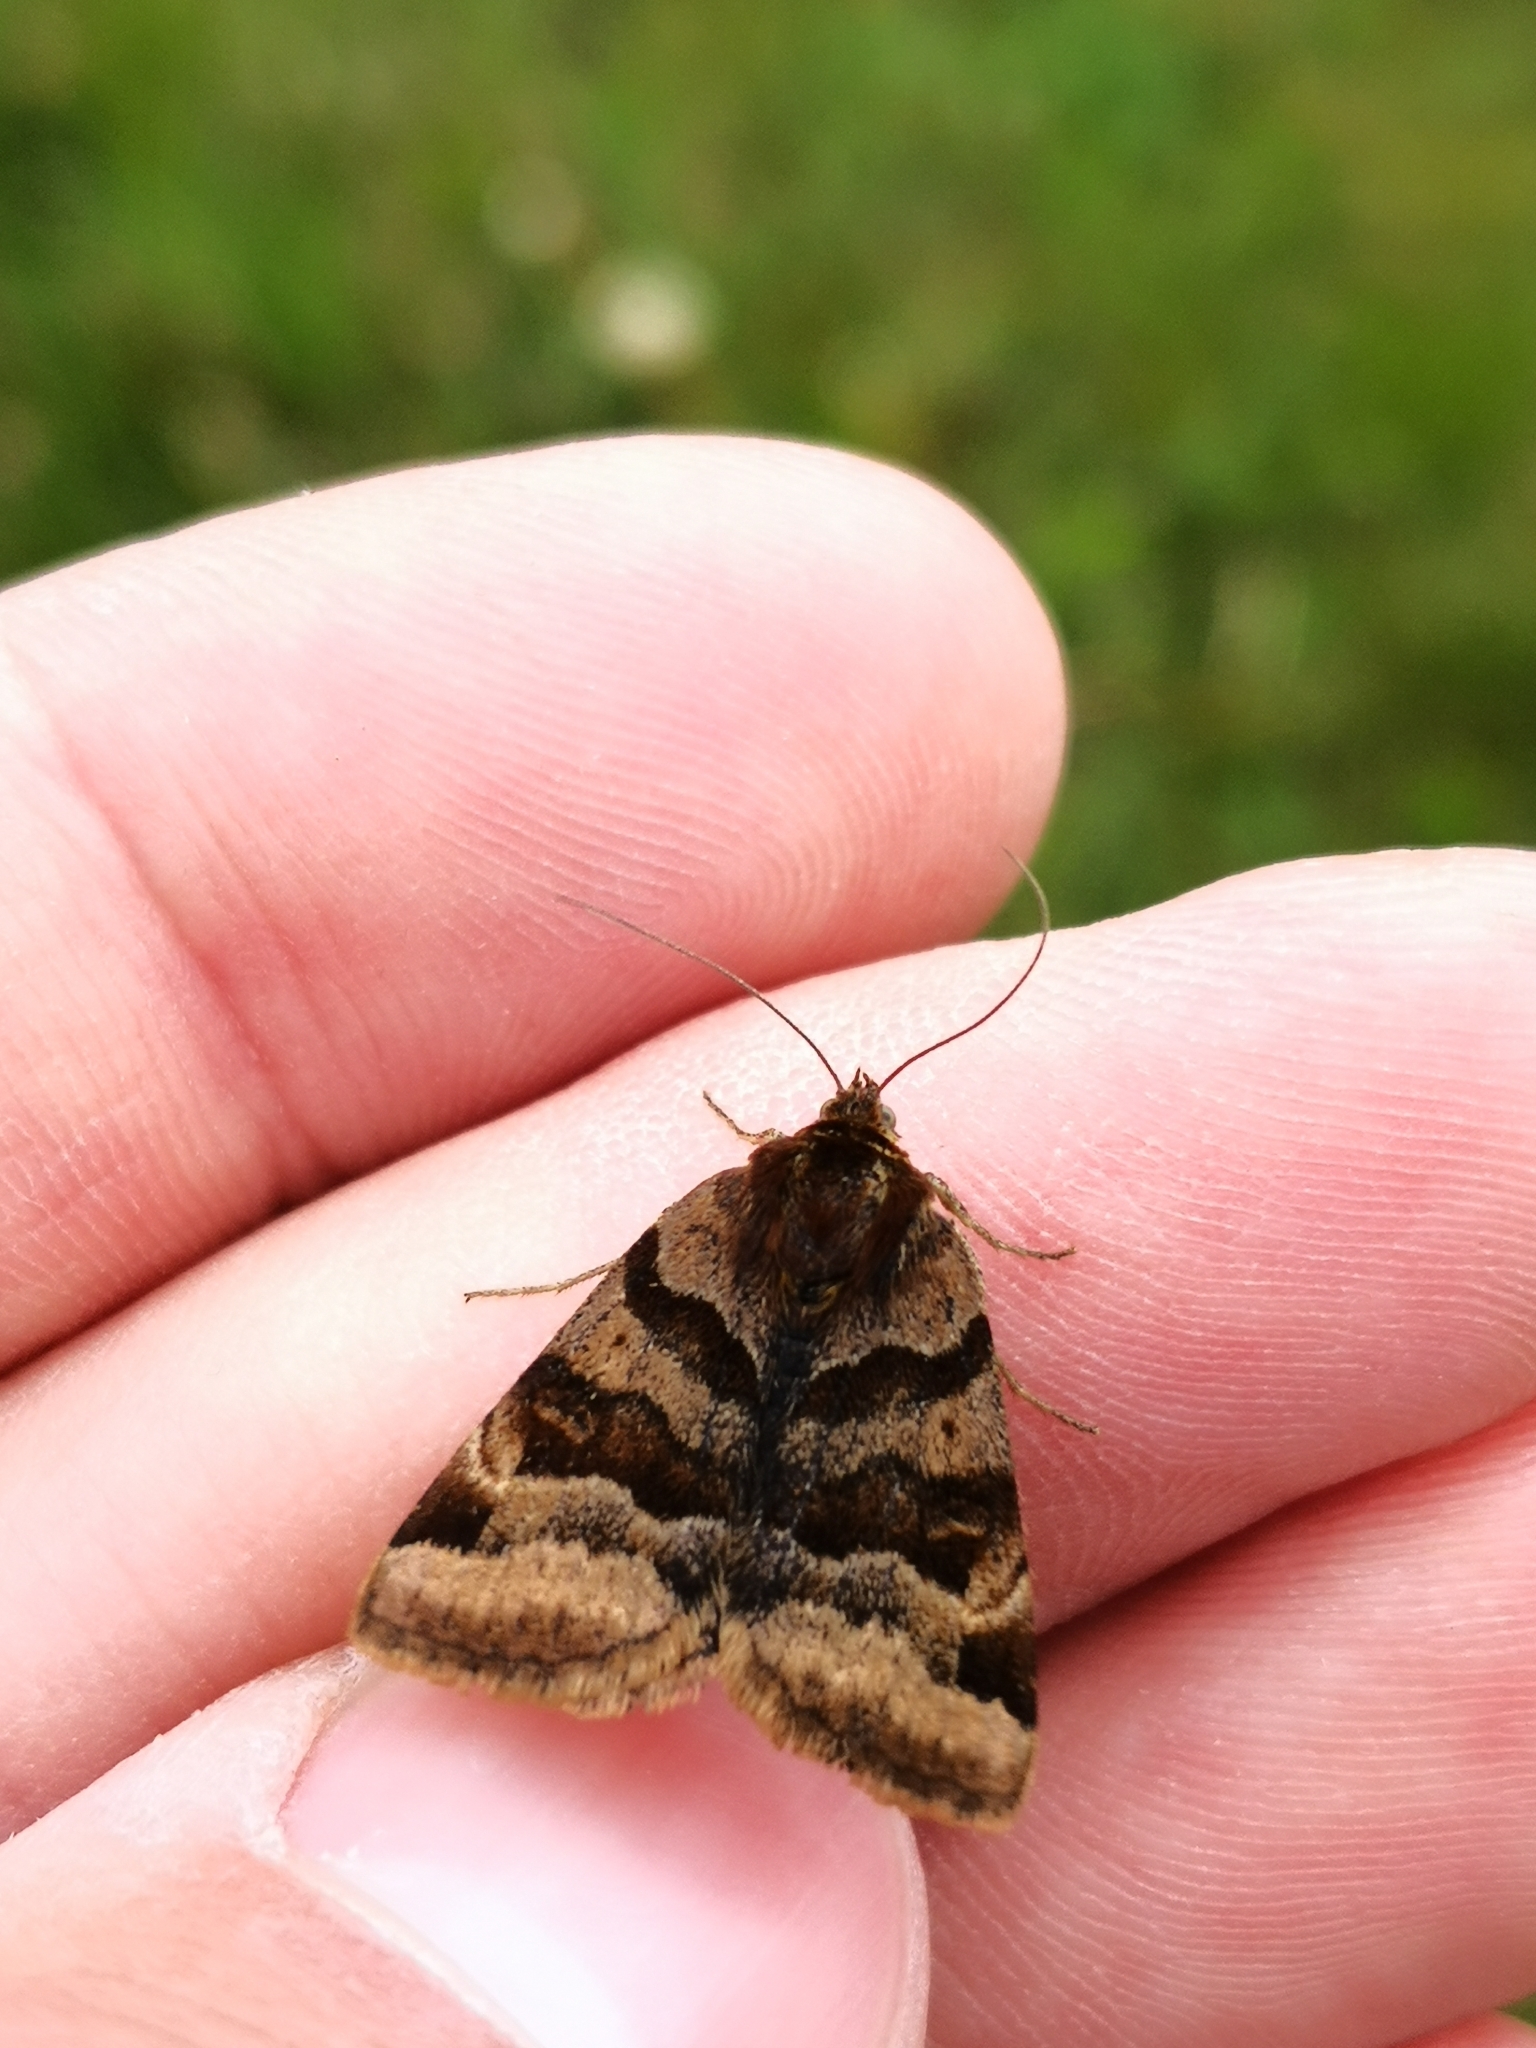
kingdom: Animalia
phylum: Arthropoda
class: Insecta
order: Lepidoptera
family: Erebidae
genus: Euclidia
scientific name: Euclidia glyphica
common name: Burnet companion
